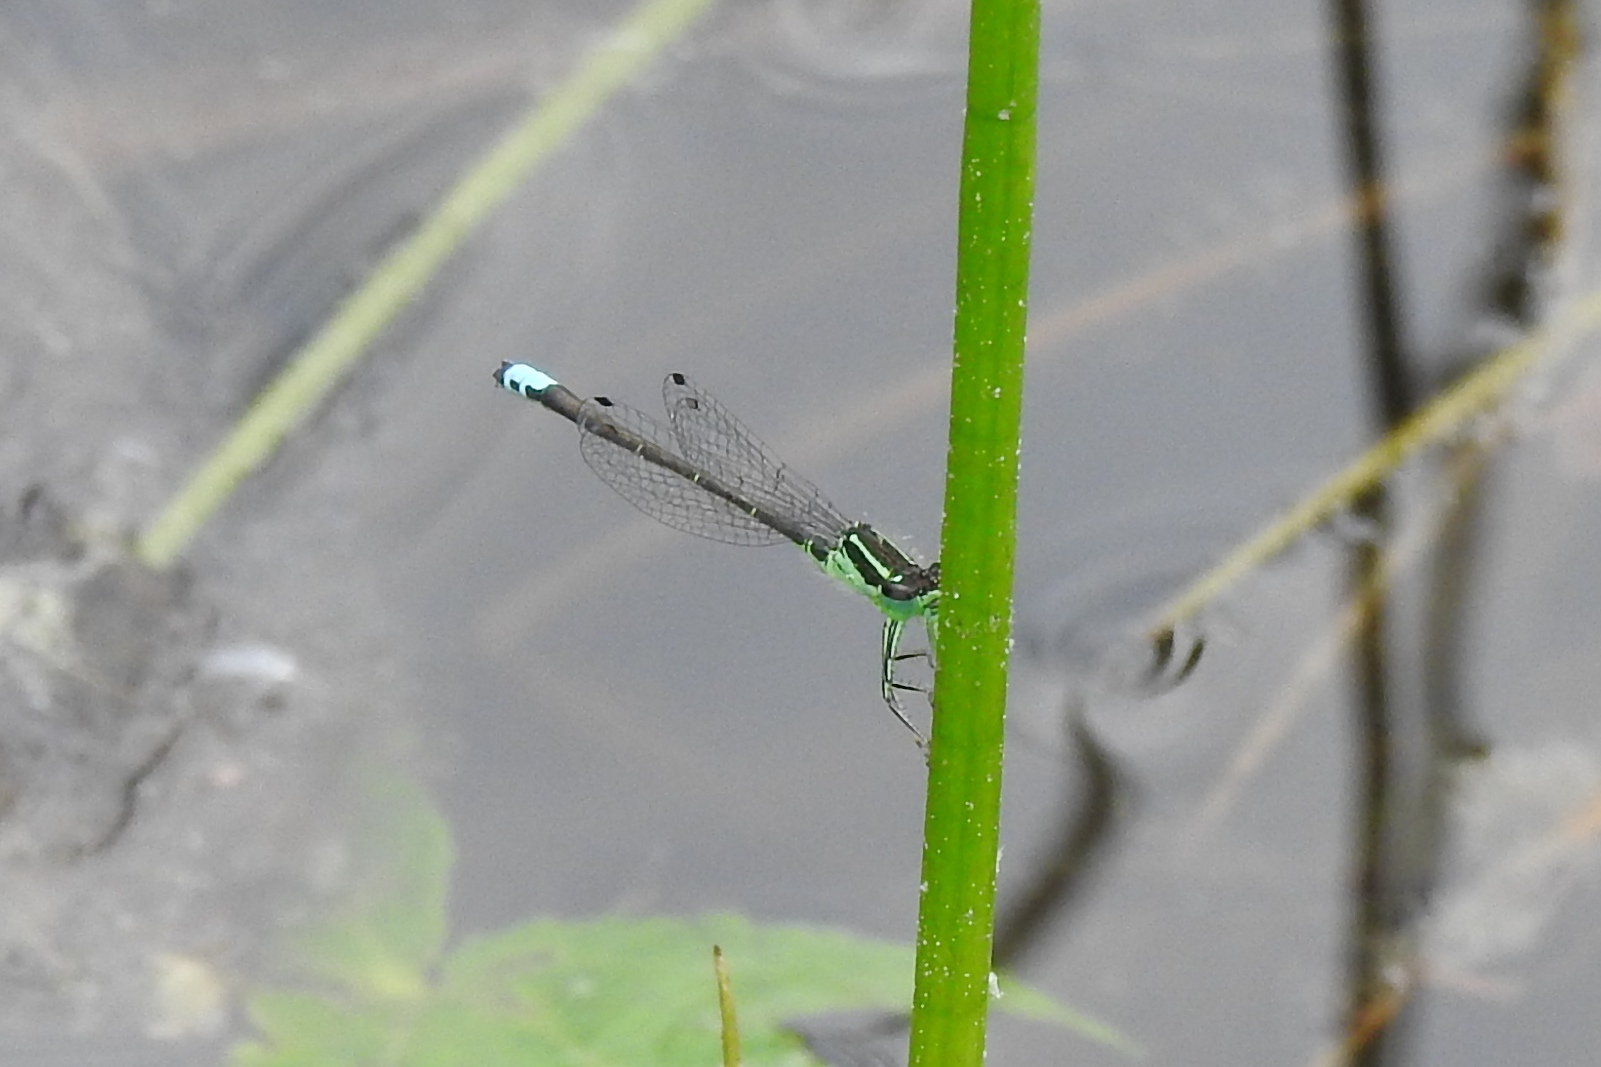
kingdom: Animalia
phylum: Arthropoda
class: Insecta
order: Odonata
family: Coenagrionidae
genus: Ischnura
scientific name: Ischnura verticalis
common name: Eastern forktail
